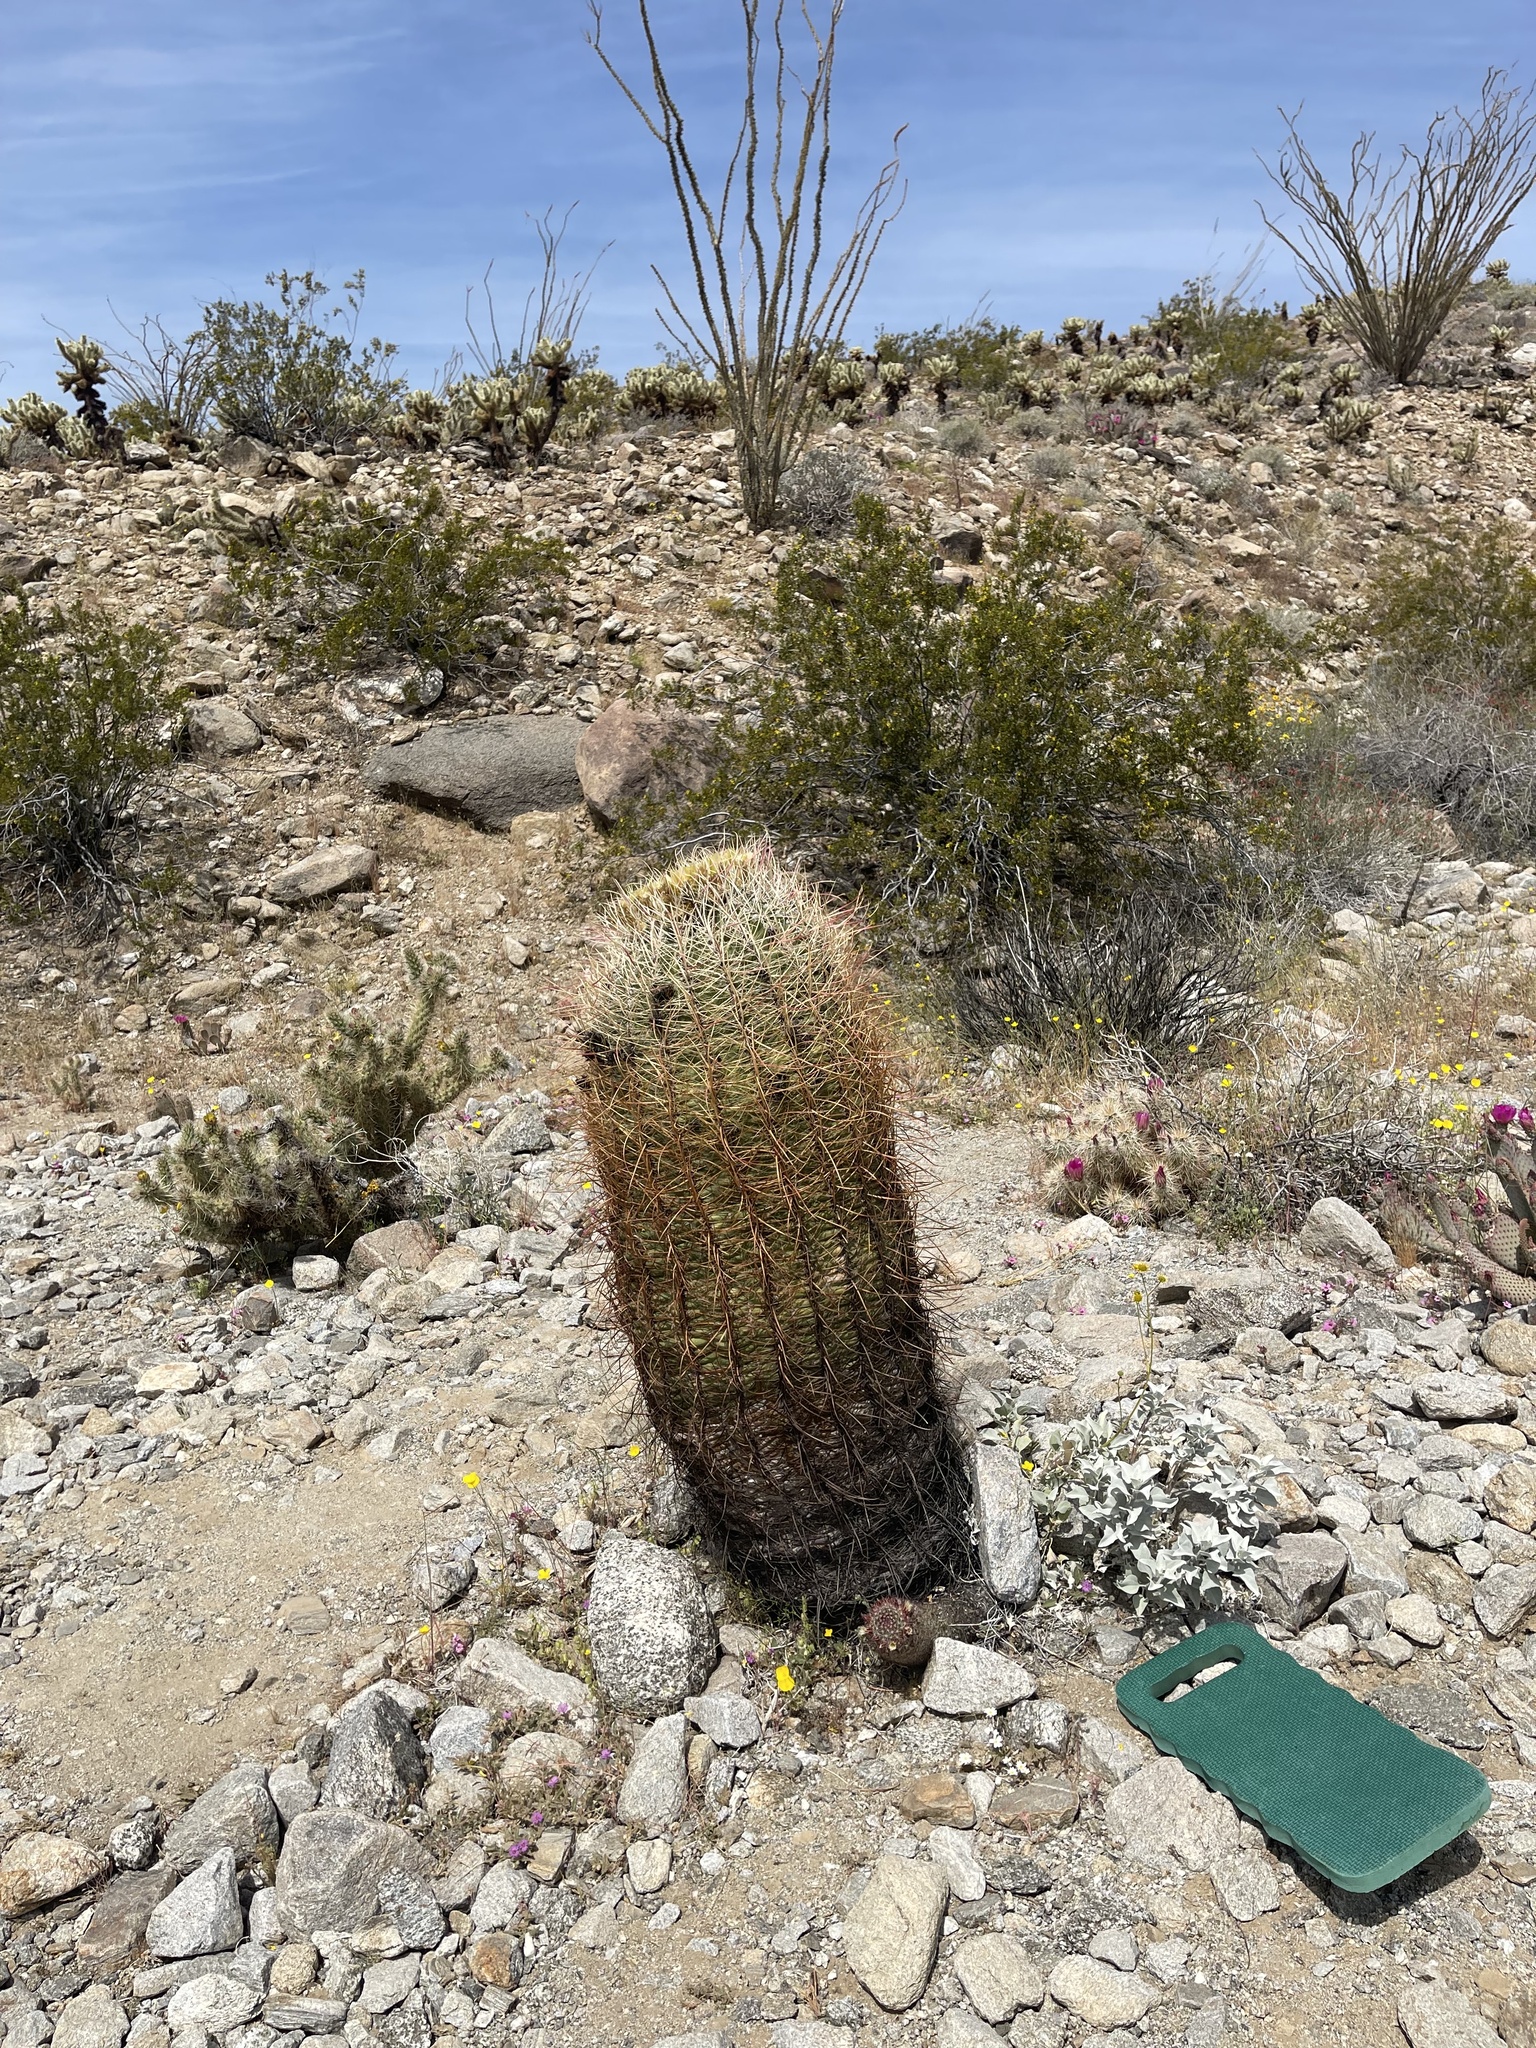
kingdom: Plantae
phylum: Tracheophyta
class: Magnoliopsida
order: Caryophyllales
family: Cactaceae
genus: Ferocactus
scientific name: Ferocactus cylindraceus
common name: California barrel cactus
